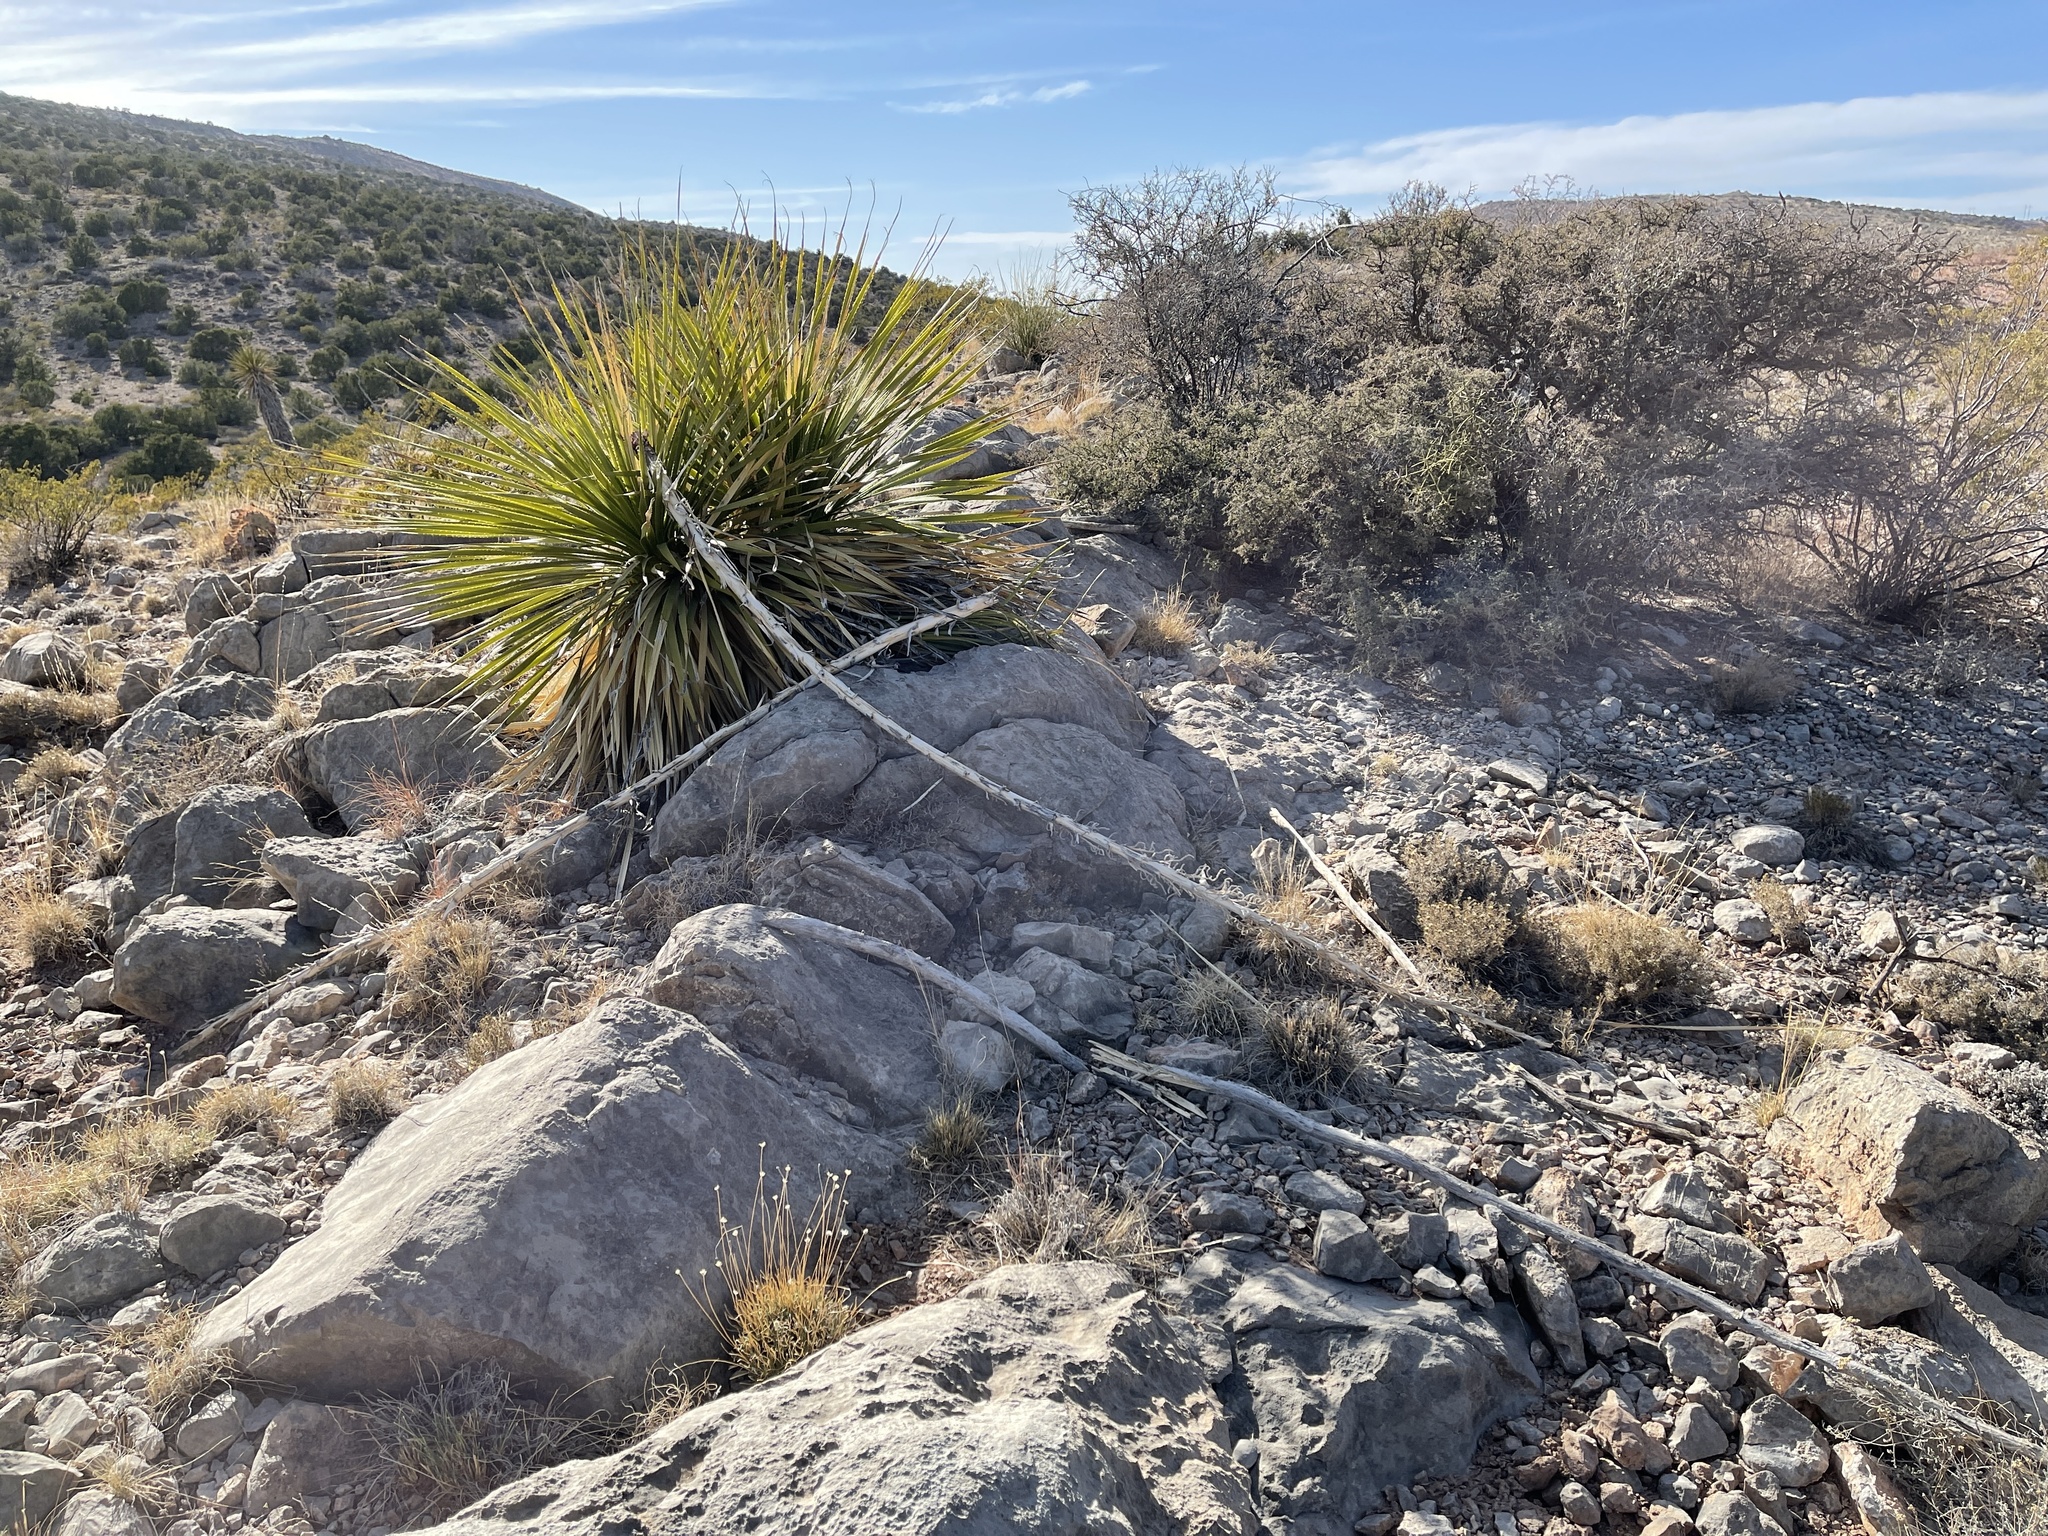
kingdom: Plantae
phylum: Tracheophyta
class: Liliopsida
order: Asparagales
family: Asparagaceae
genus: Dasylirion
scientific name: Dasylirion wheeleri
